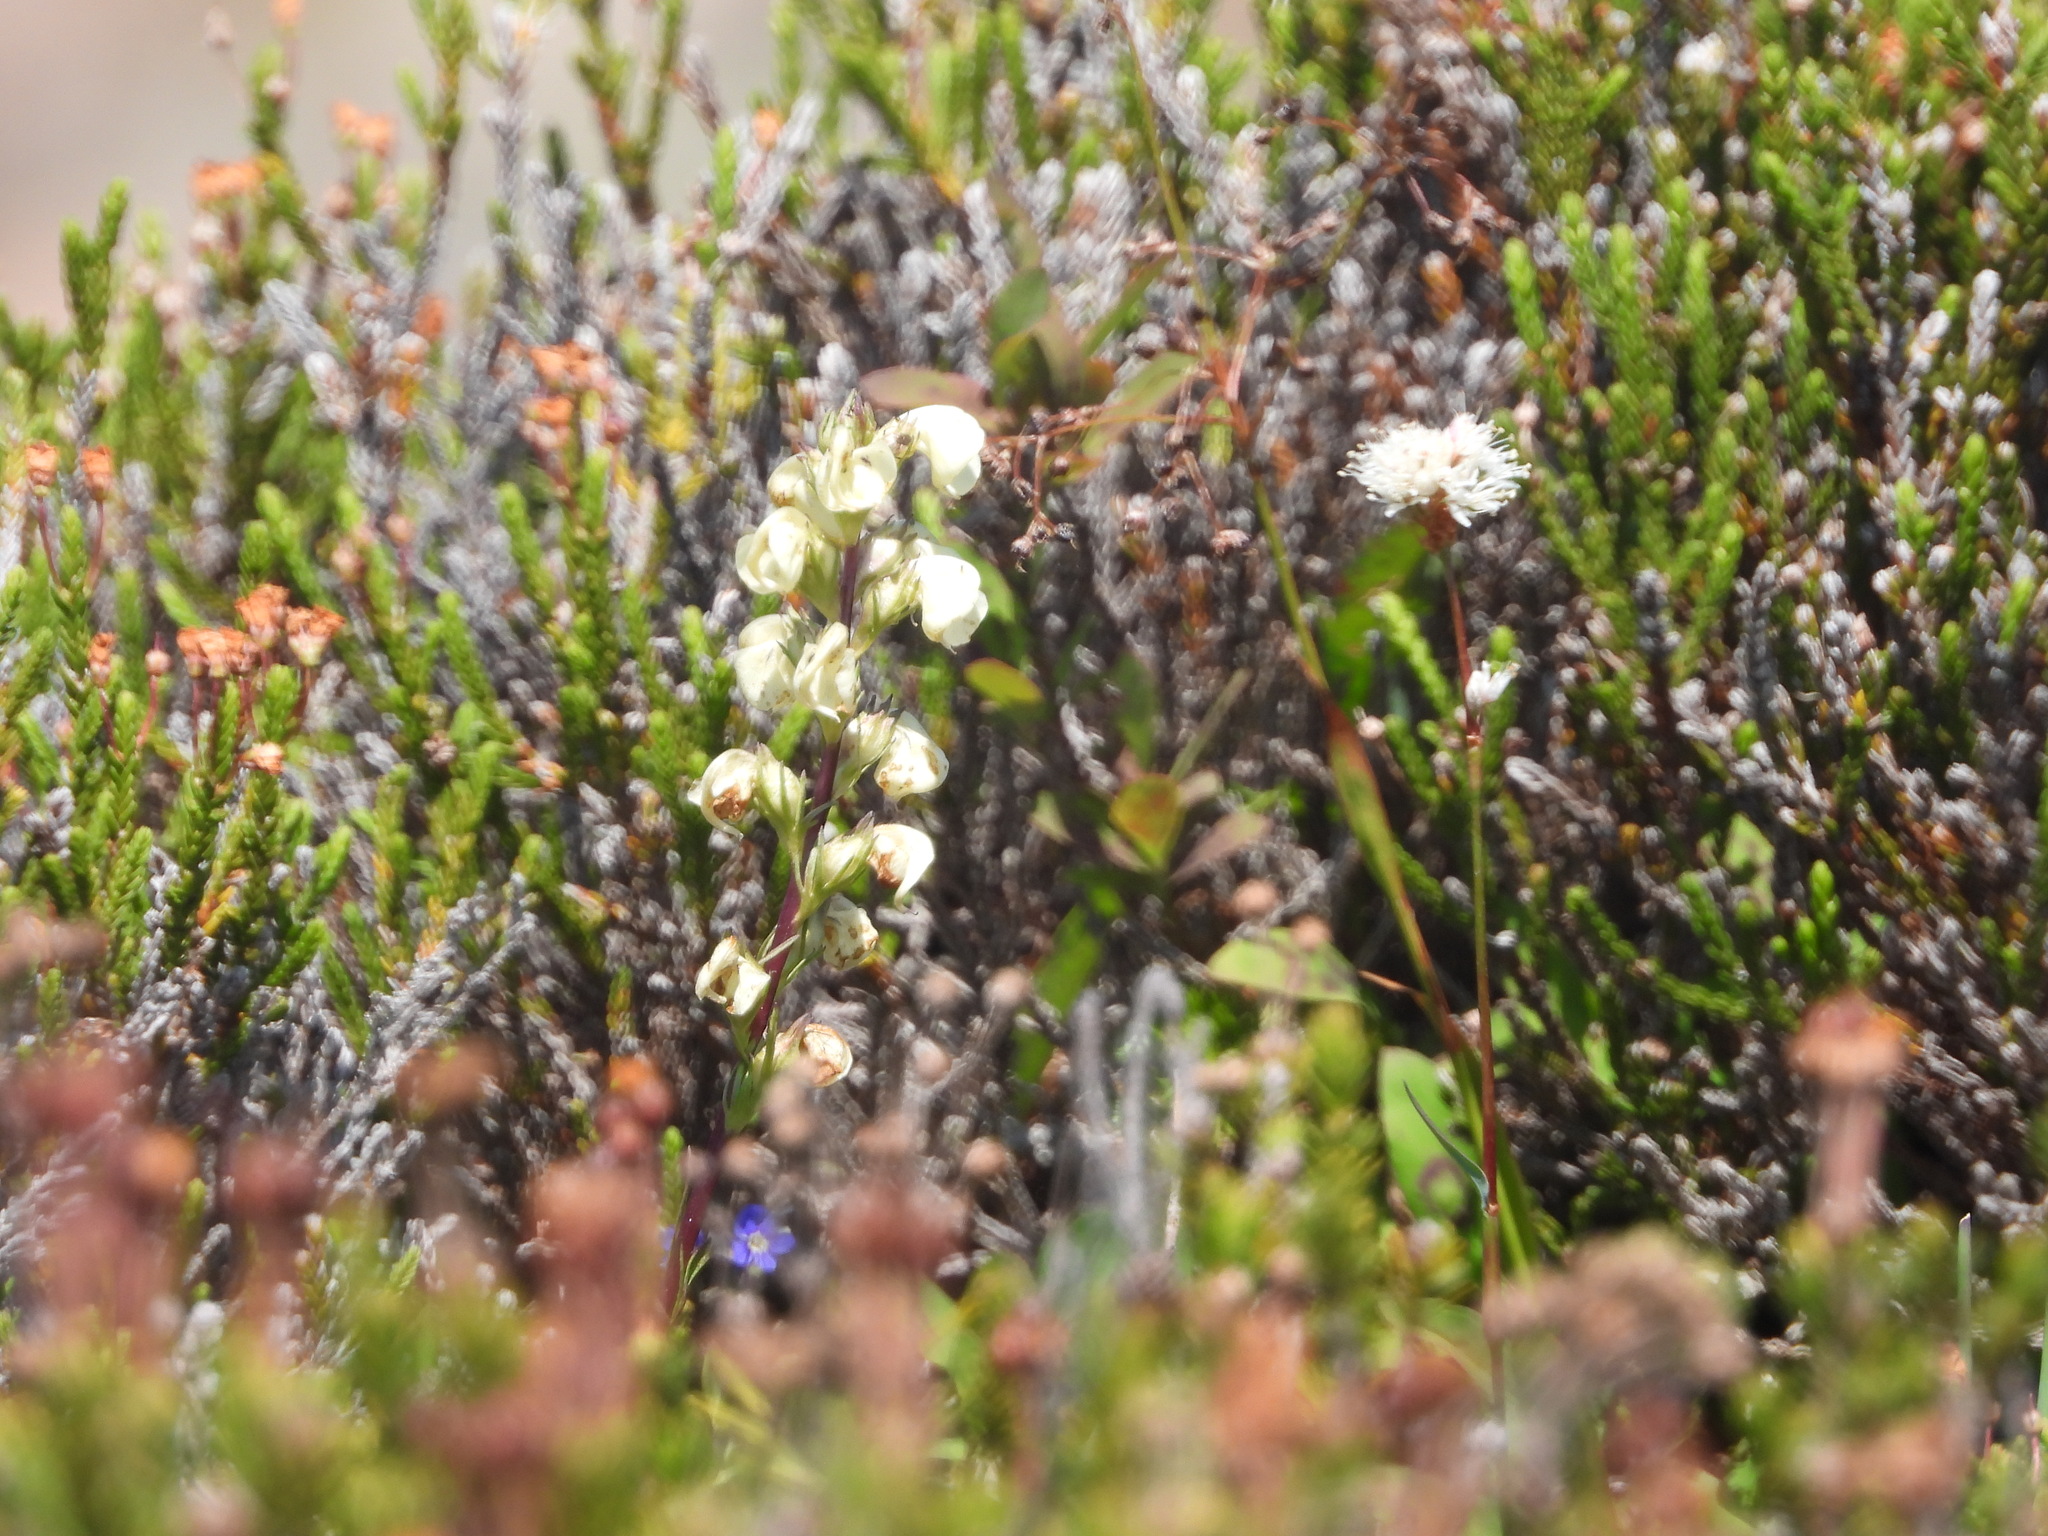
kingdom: Plantae
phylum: Tracheophyta
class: Magnoliopsida
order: Lamiales
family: Orobanchaceae
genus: Pedicularis
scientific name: Pedicularis contorta
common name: Coiled lousewort
